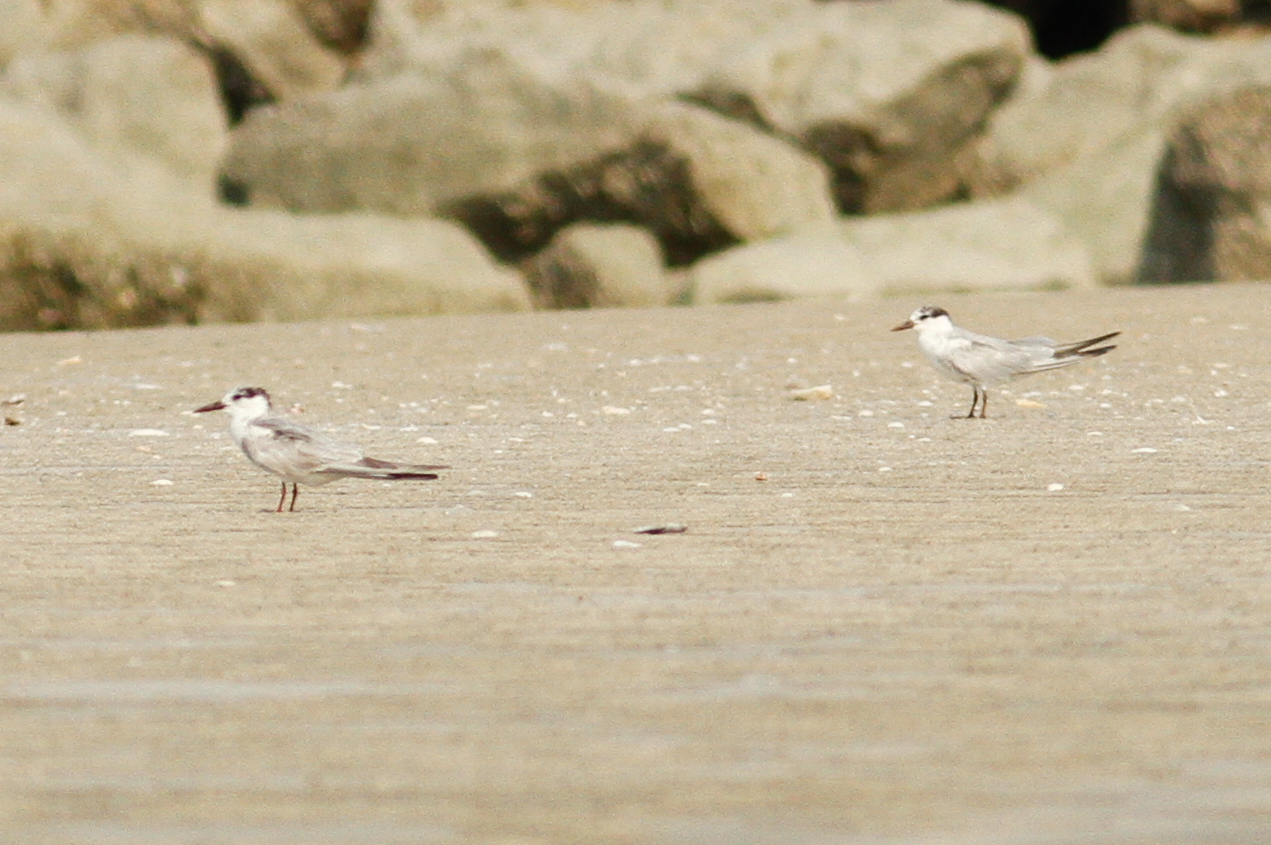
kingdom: Animalia
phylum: Chordata
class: Aves
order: Charadriiformes
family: Laridae
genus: Chlidonias
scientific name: Chlidonias hybrida
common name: Whiskered tern
